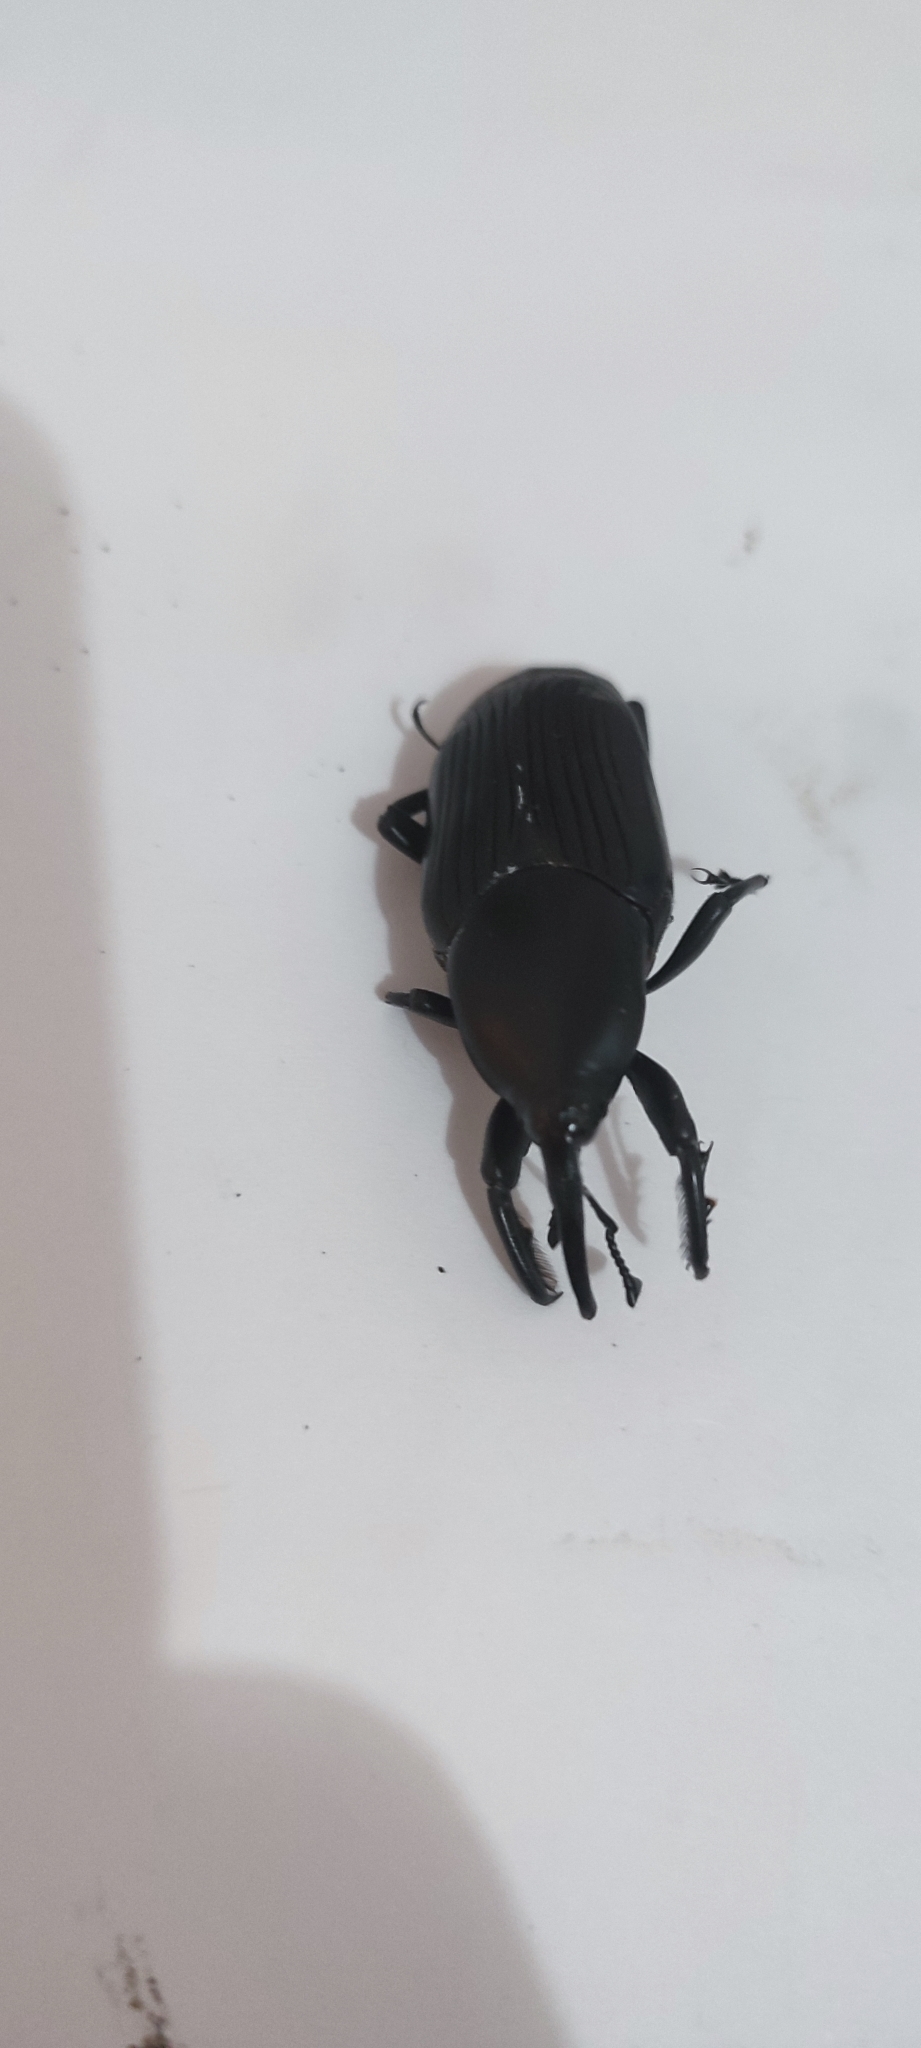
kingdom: Animalia
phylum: Arthropoda
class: Insecta
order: Coleoptera
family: Dryophthoridae
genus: Rhynchophorus
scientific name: Rhynchophorus palmarum
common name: Palm weevil
